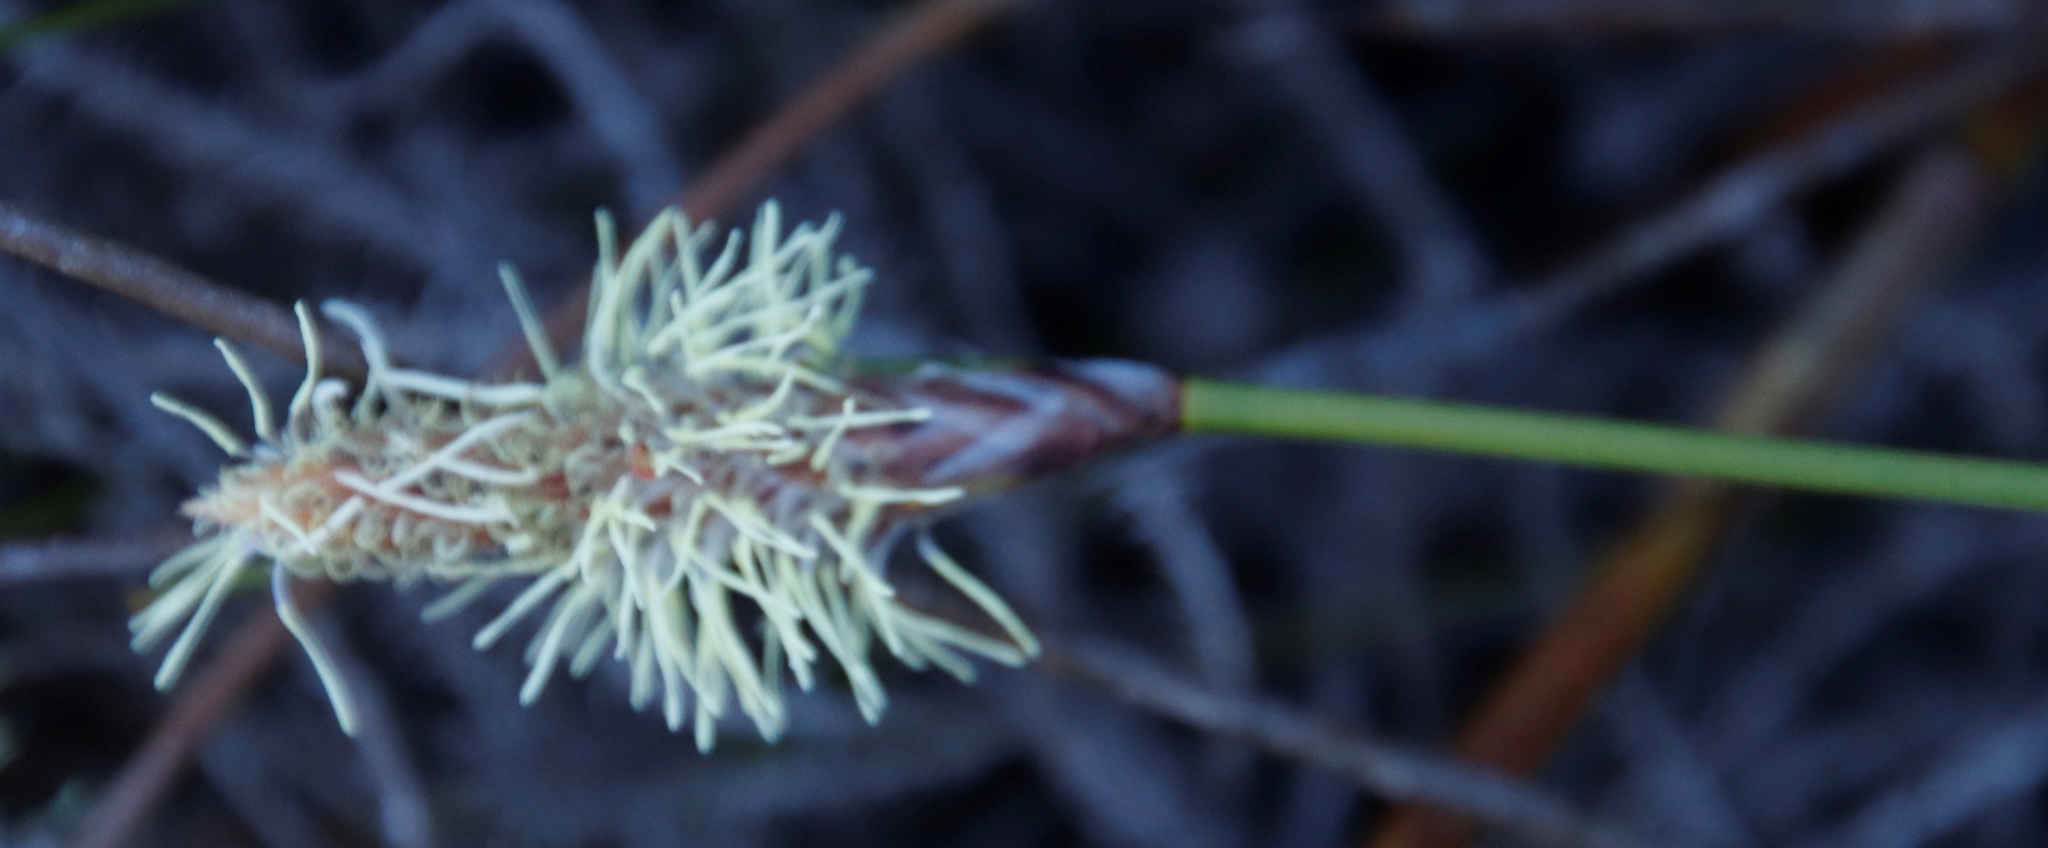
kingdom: Plantae
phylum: Tracheophyta
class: Liliopsida
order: Poales
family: Cyperaceae
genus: Ficinia
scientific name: Ficinia deusta
